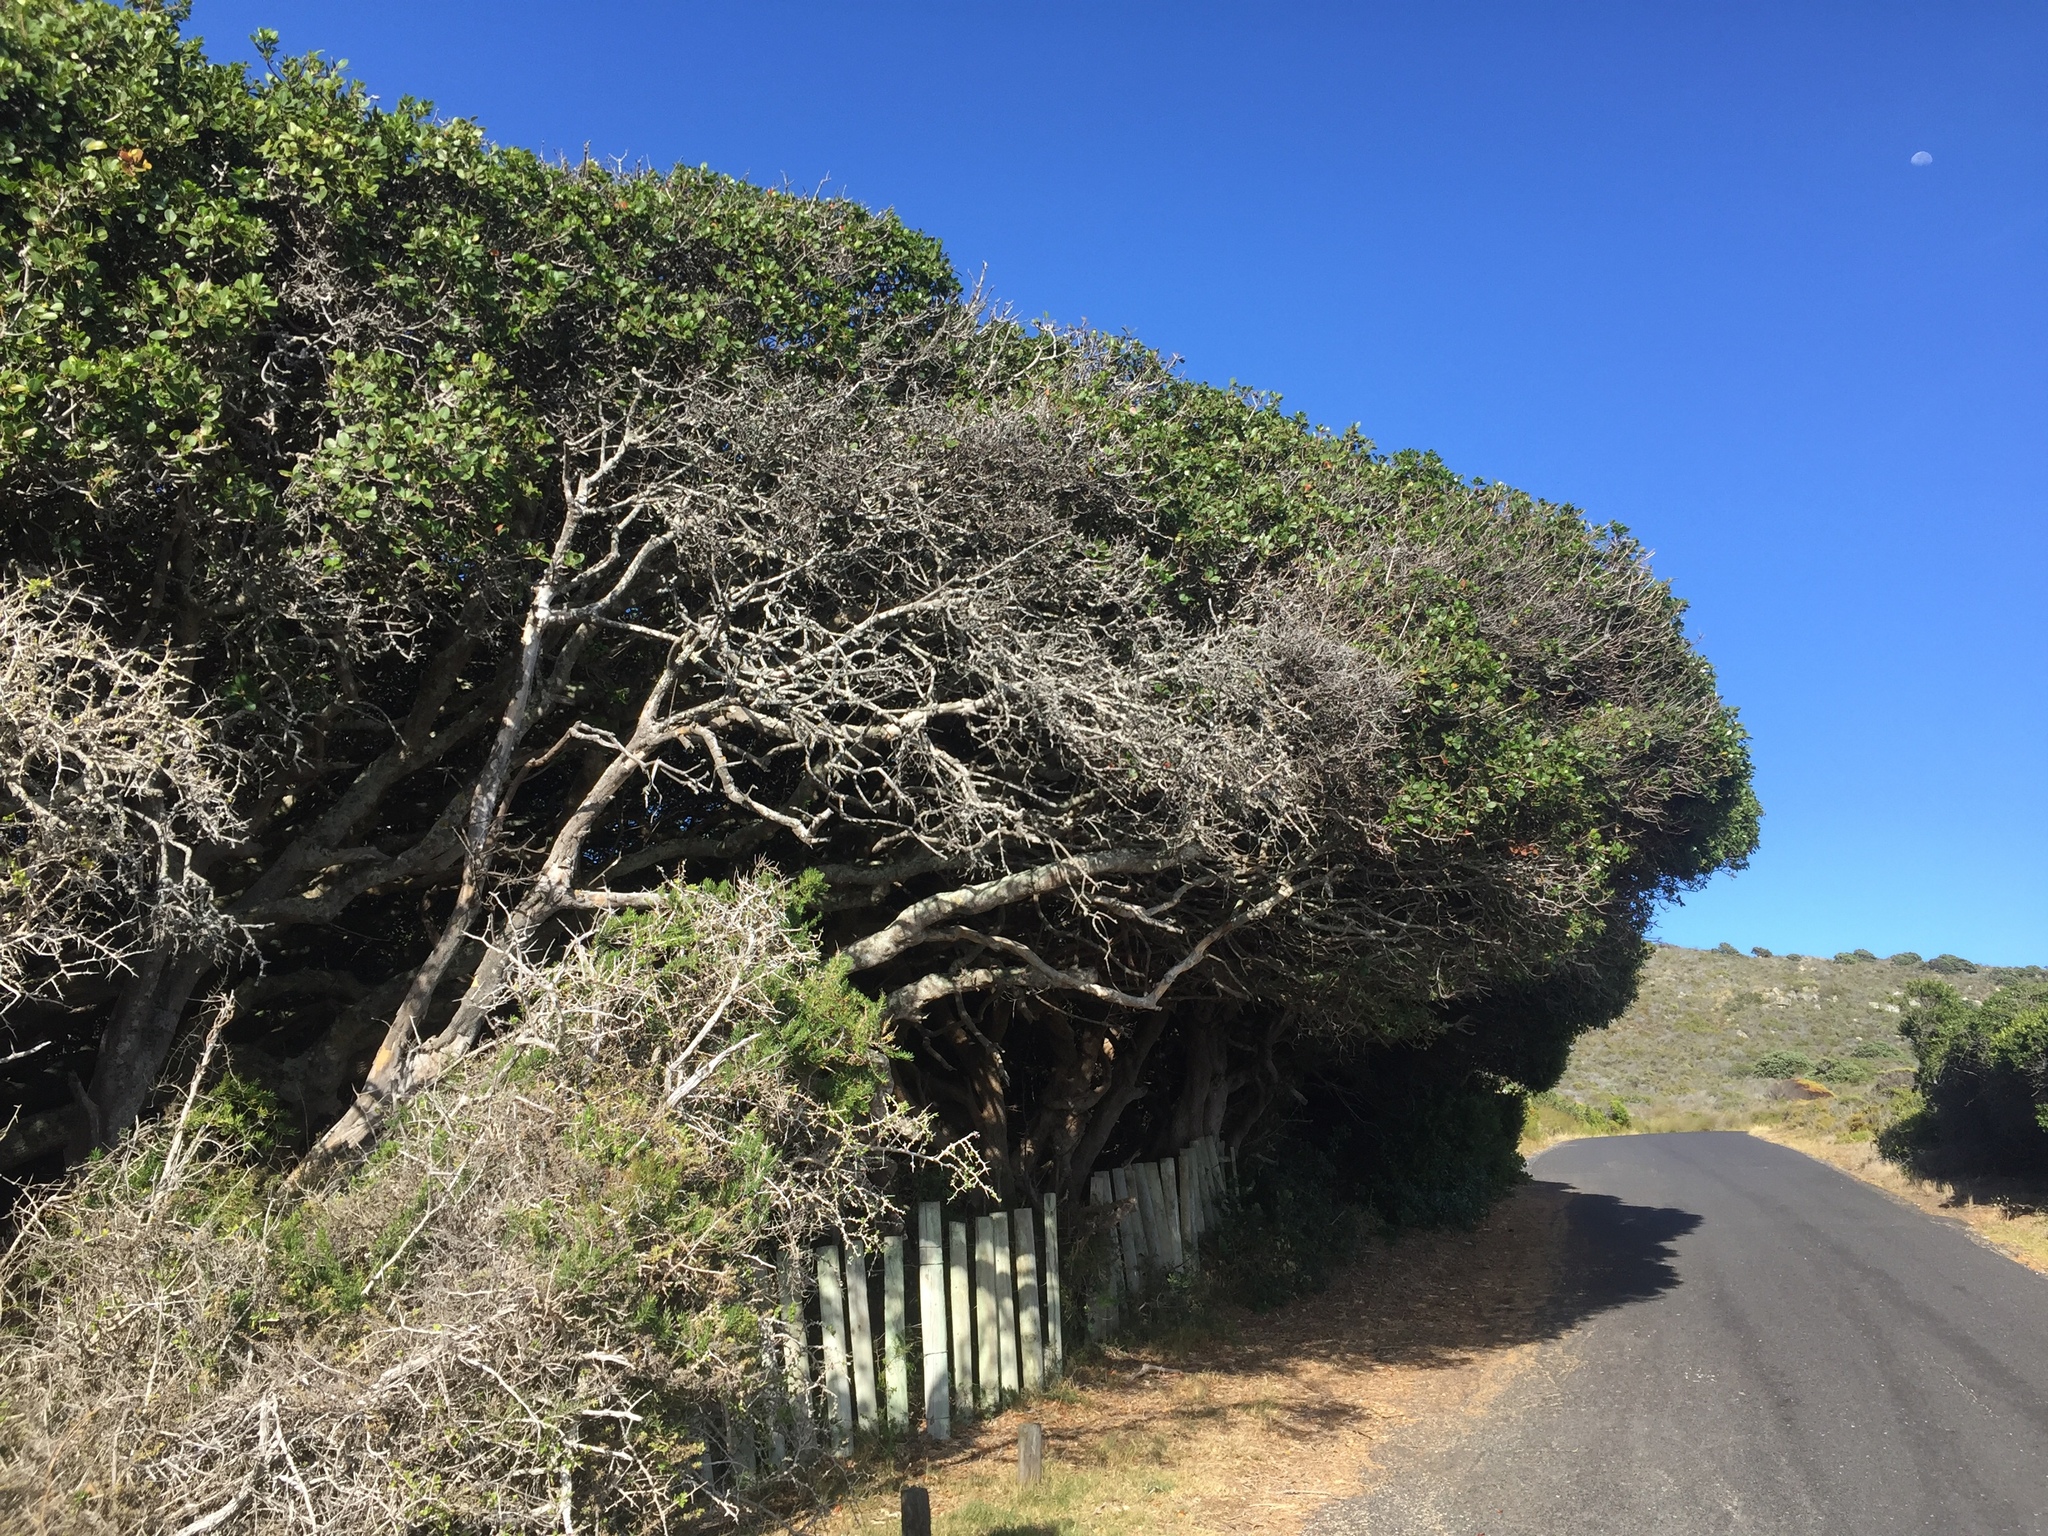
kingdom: Plantae
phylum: Tracheophyta
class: Magnoliopsida
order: Ericales
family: Sapotaceae
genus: Sideroxylon
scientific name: Sideroxylon inerme
